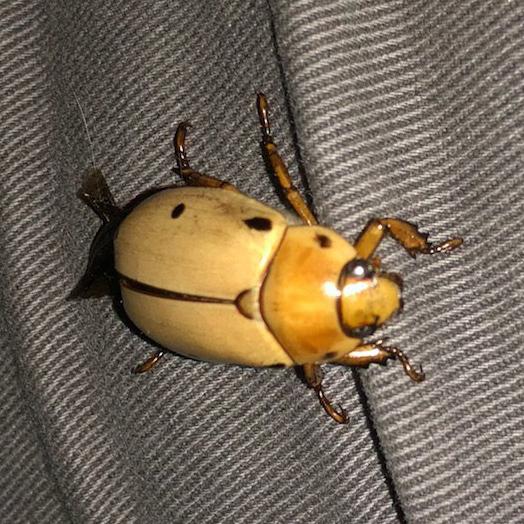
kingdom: Animalia
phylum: Arthropoda
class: Insecta
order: Coleoptera
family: Scarabaeidae
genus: Pelidnota
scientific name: Pelidnota punctata
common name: Grapevine beetle
